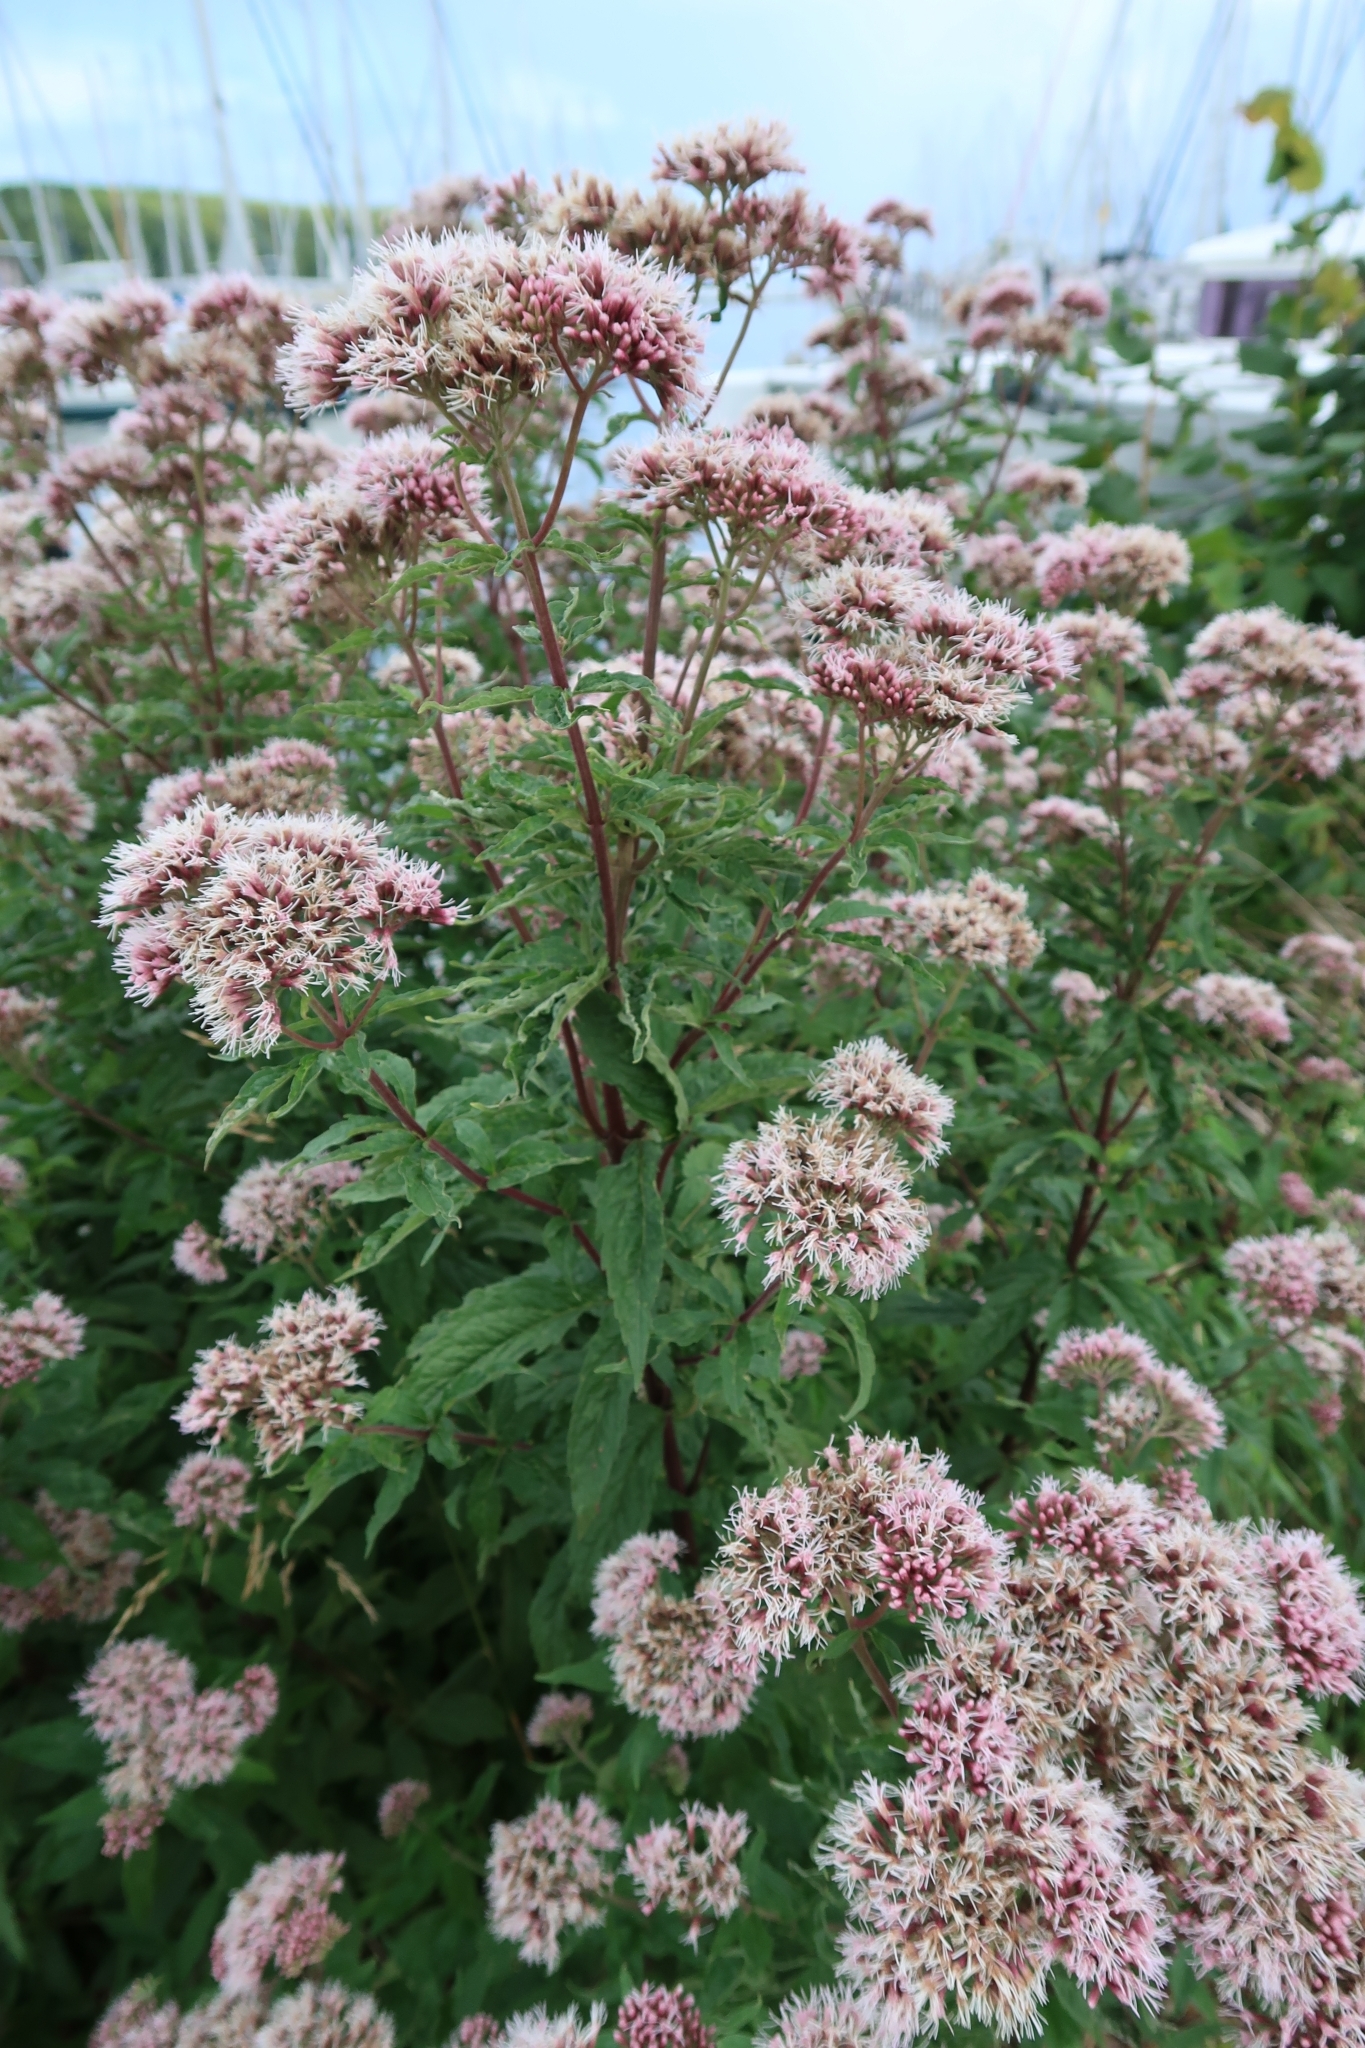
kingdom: Plantae
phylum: Tracheophyta
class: Magnoliopsida
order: Asterales
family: Asteraceae
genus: Eupatorium
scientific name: Eupatorium cannabinum
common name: Hemp-agrimony
